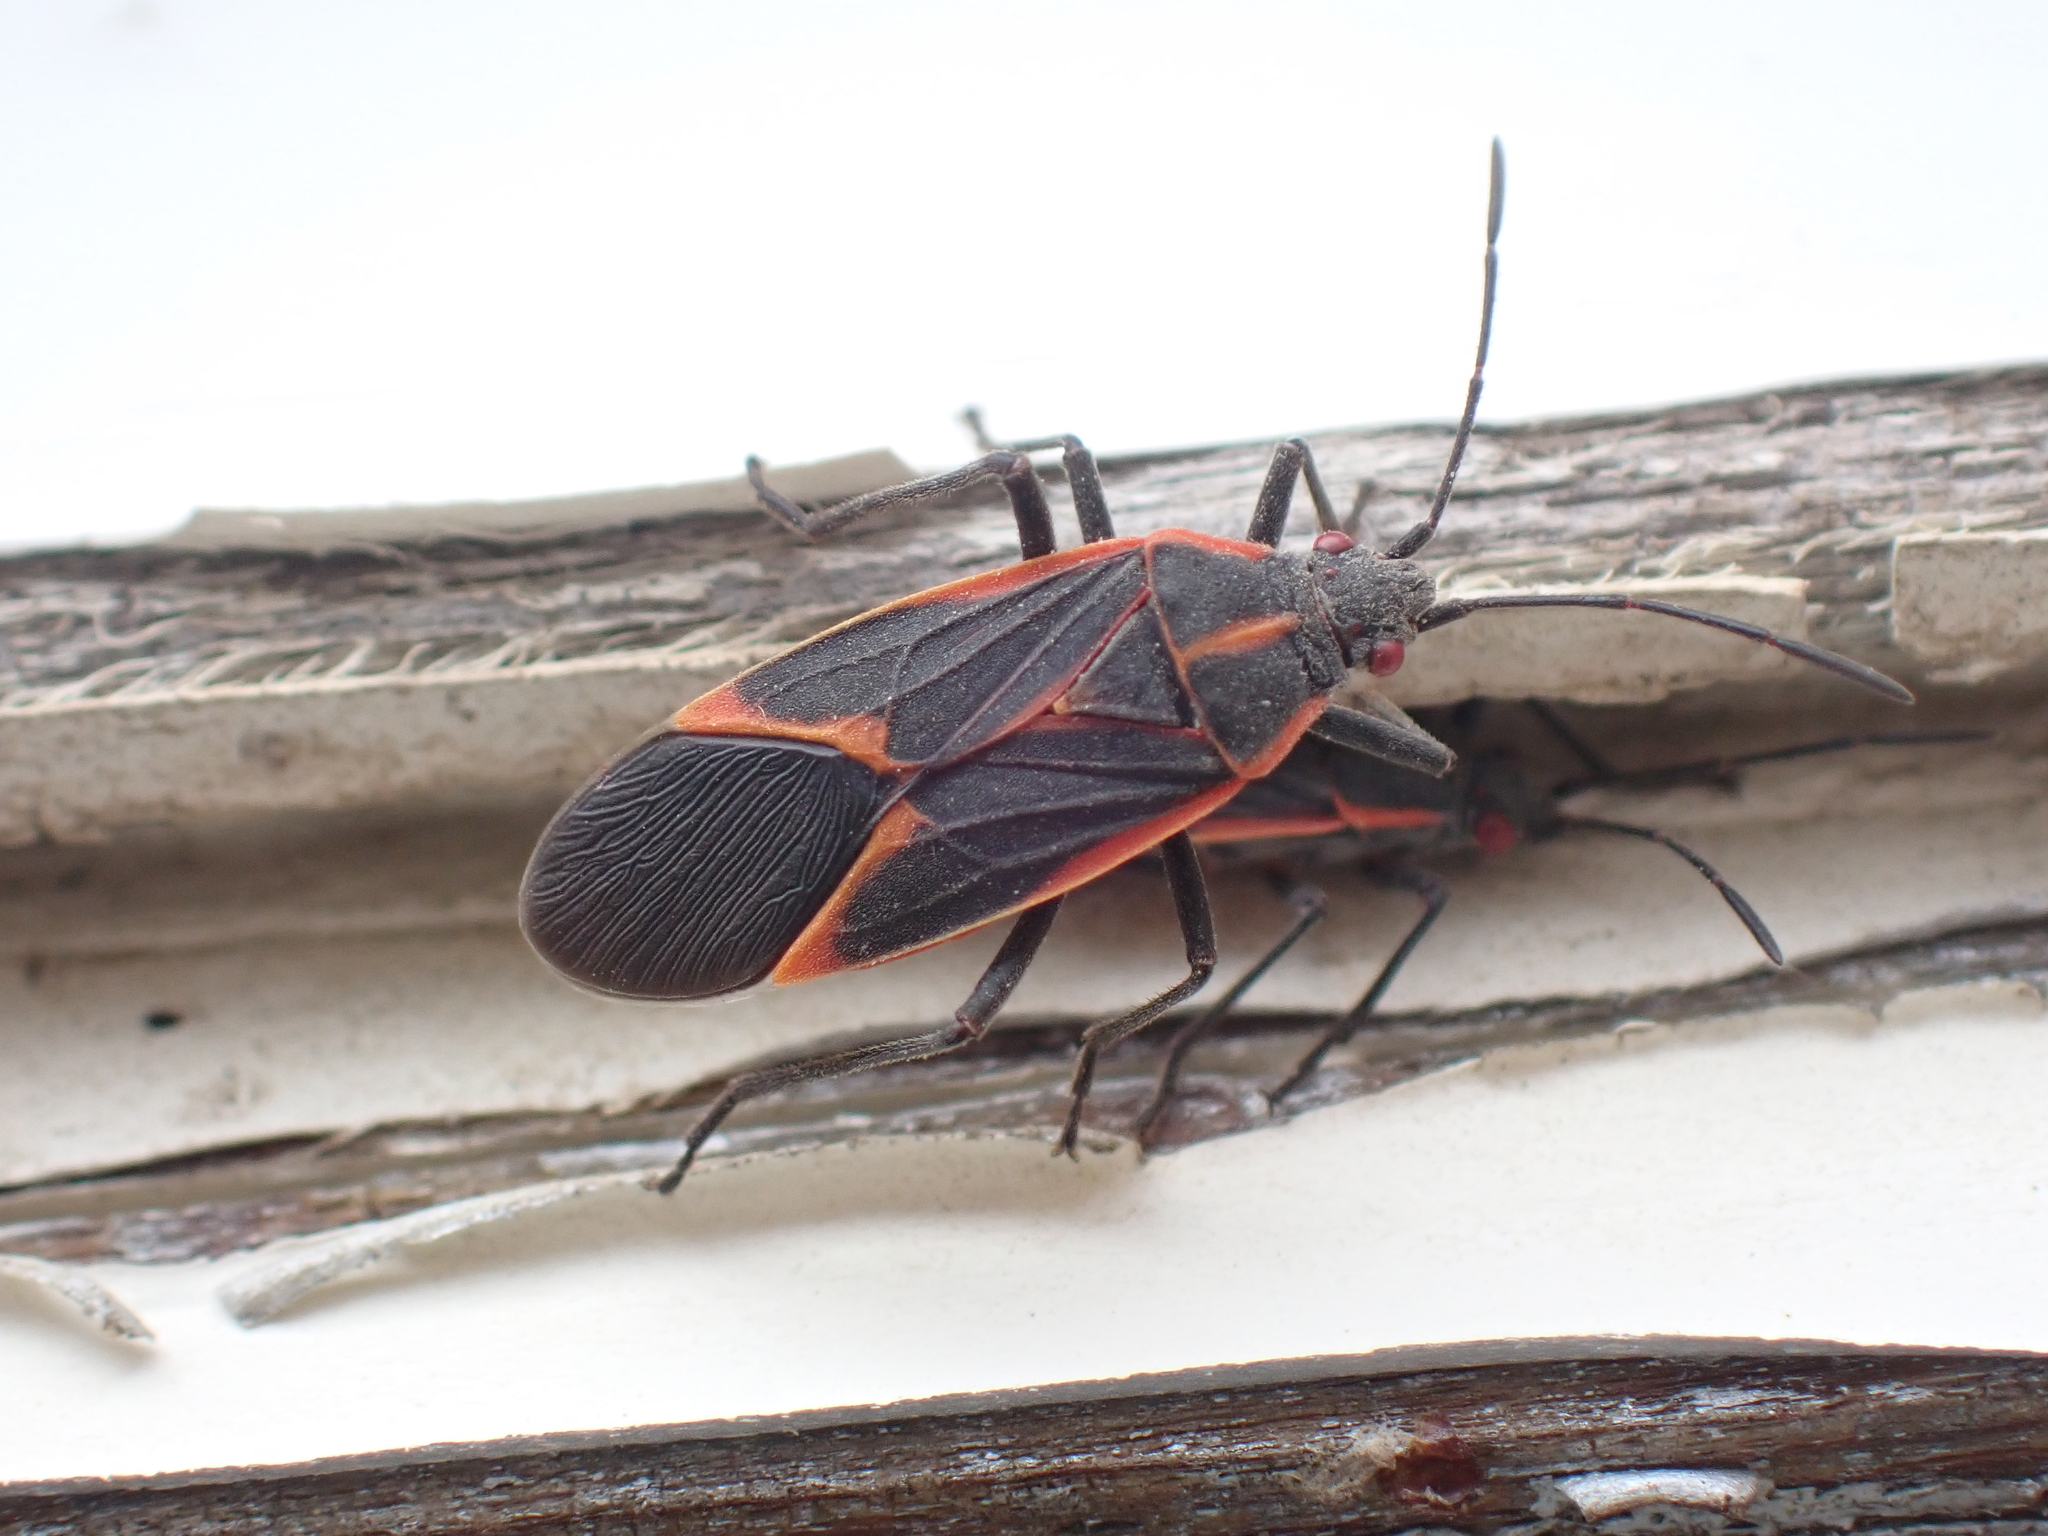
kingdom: Animalia
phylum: Arthropoda
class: Insecta
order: Hemiptera
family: Rhopalidae
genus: Boisea
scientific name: Boisea trivittata
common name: Boxelder bug
